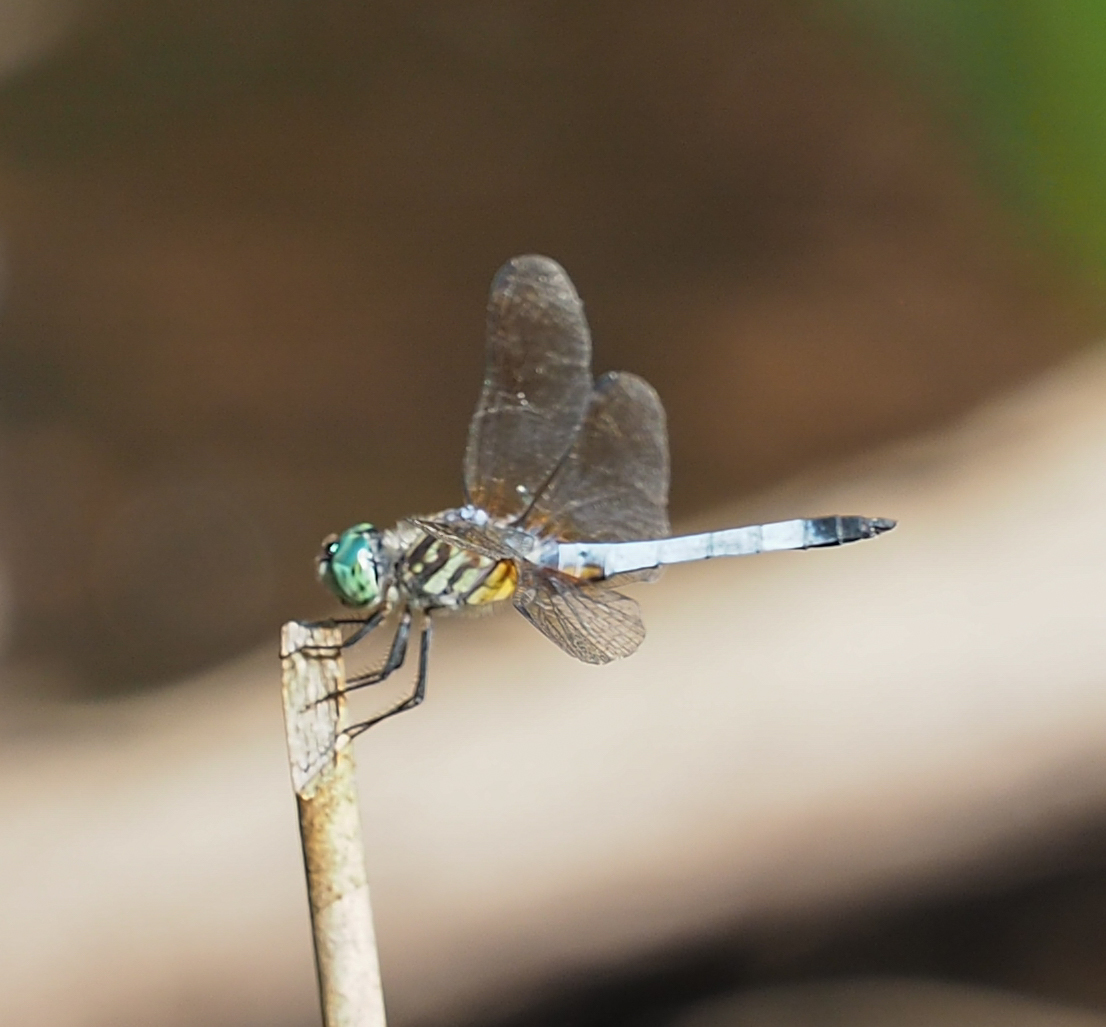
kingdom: Animalia
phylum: Arthropoda
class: Insecta
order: Odonata
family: Libellulidae
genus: Pachydiplax
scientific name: Pachydiplax longipennis
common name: Blue dasher
